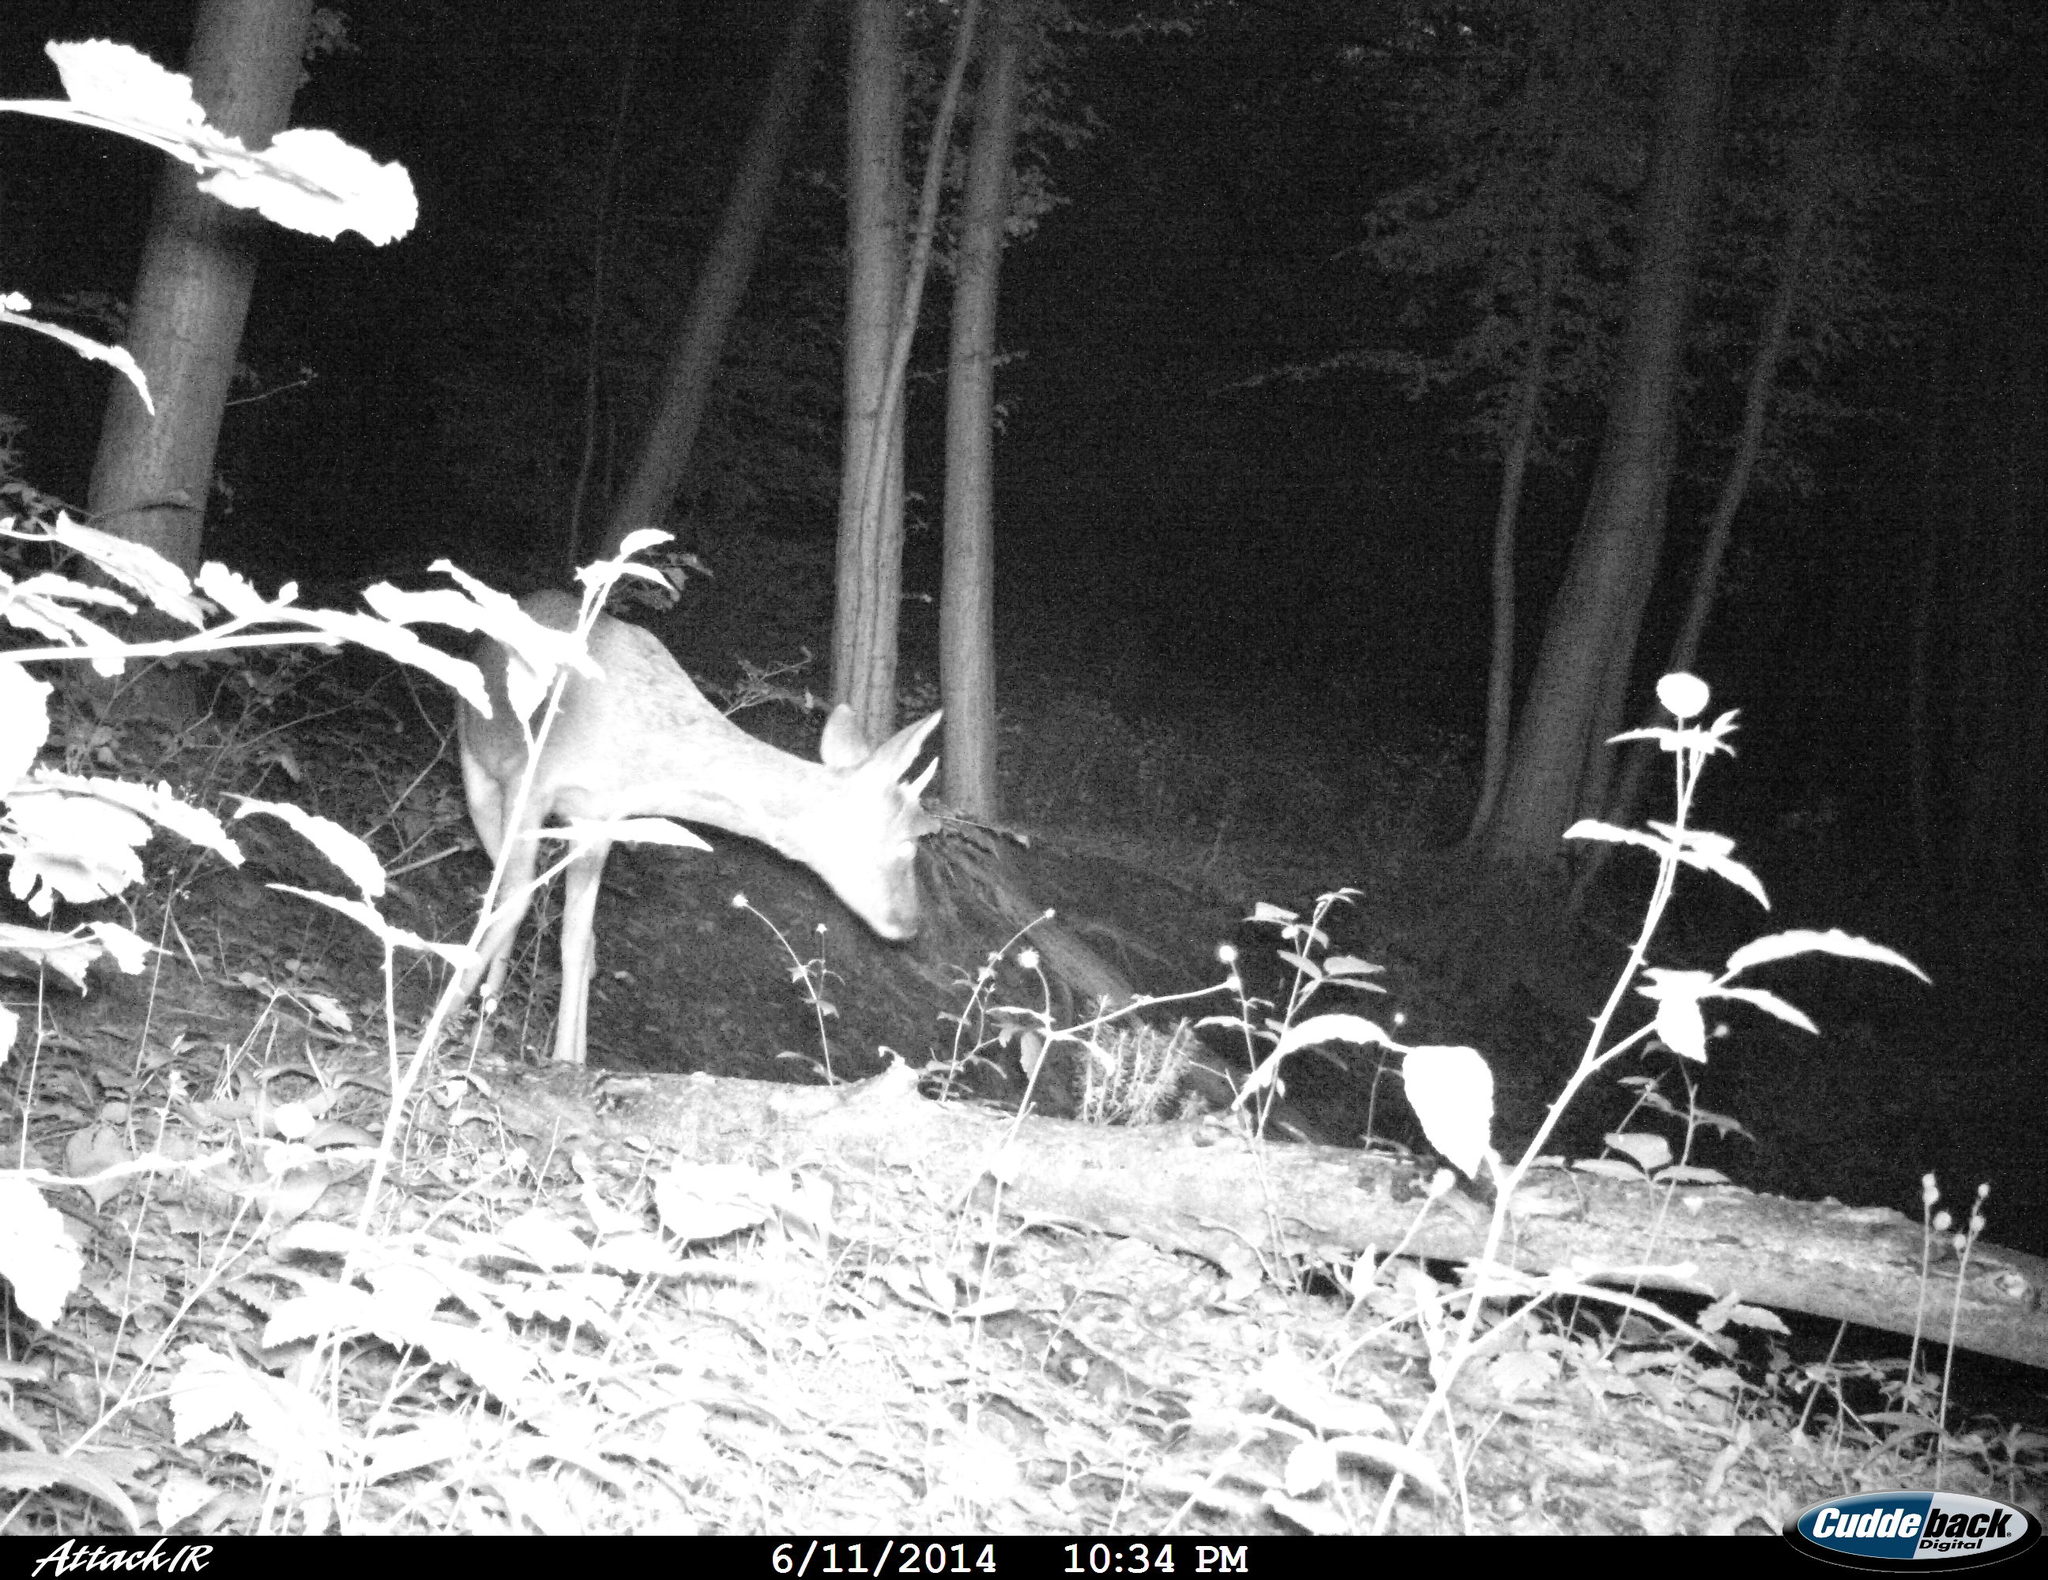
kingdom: Animalia
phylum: Chordata
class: Mammalia
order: Artiodactyla
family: Cervidae
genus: Capreolus
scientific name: Capreolus capreolus
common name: Western roe deer
